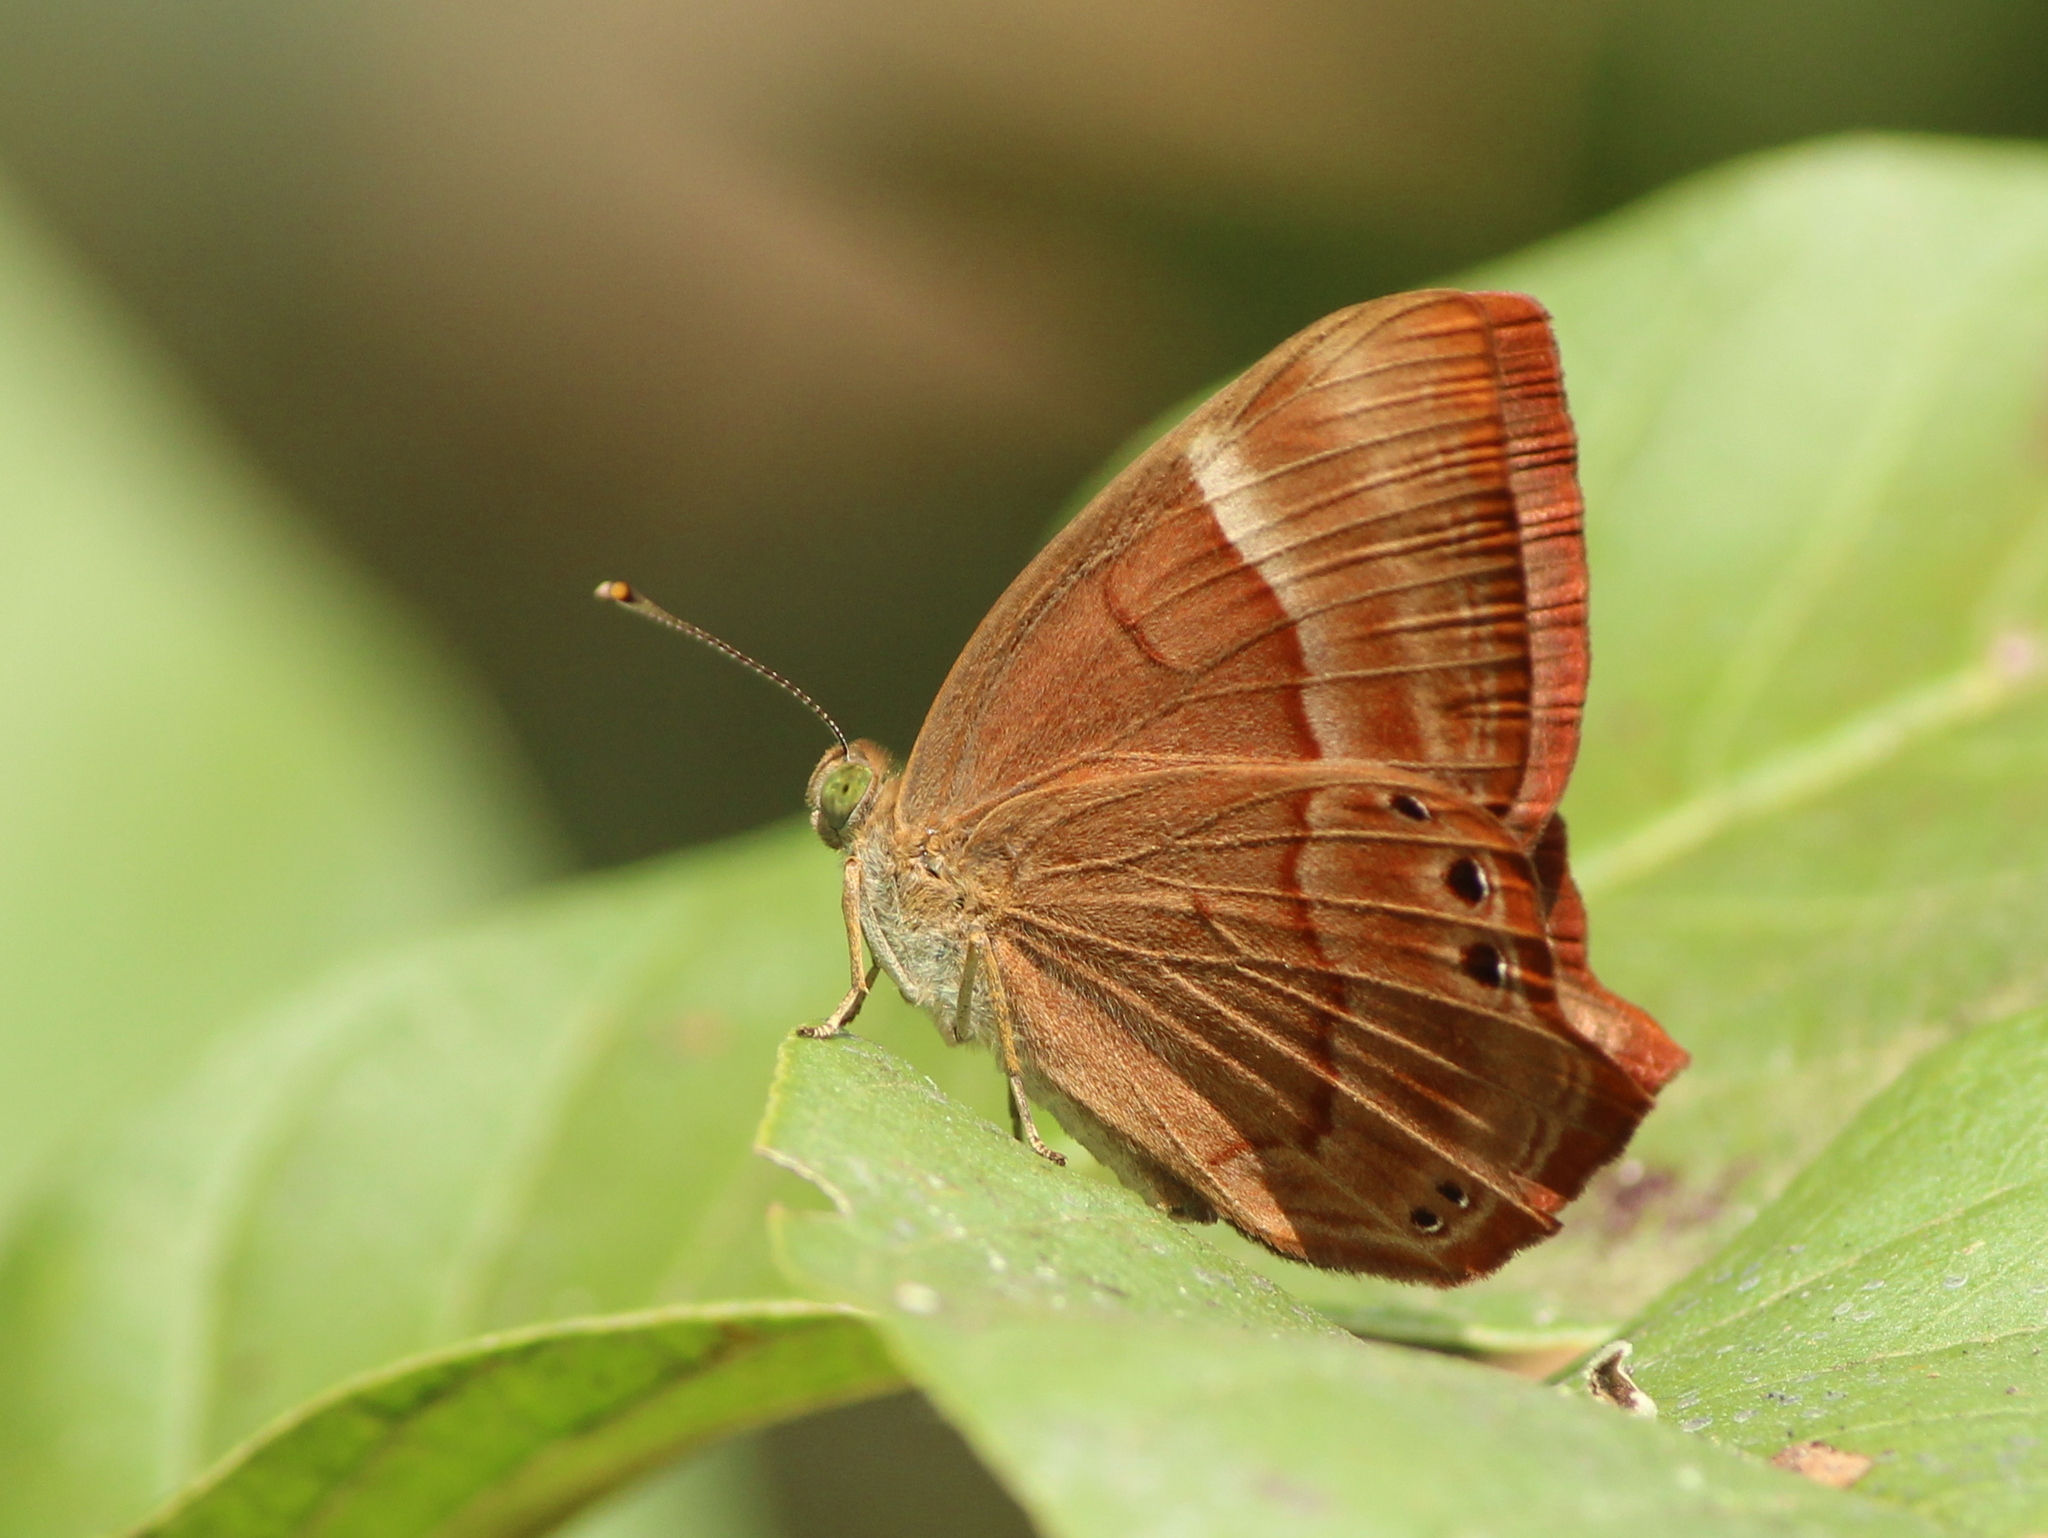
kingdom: Animalia
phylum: Arthropoda
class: Insecta
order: Lepidoptera
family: Lycaenidae
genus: Abisara
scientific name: Abisara bifasciata
